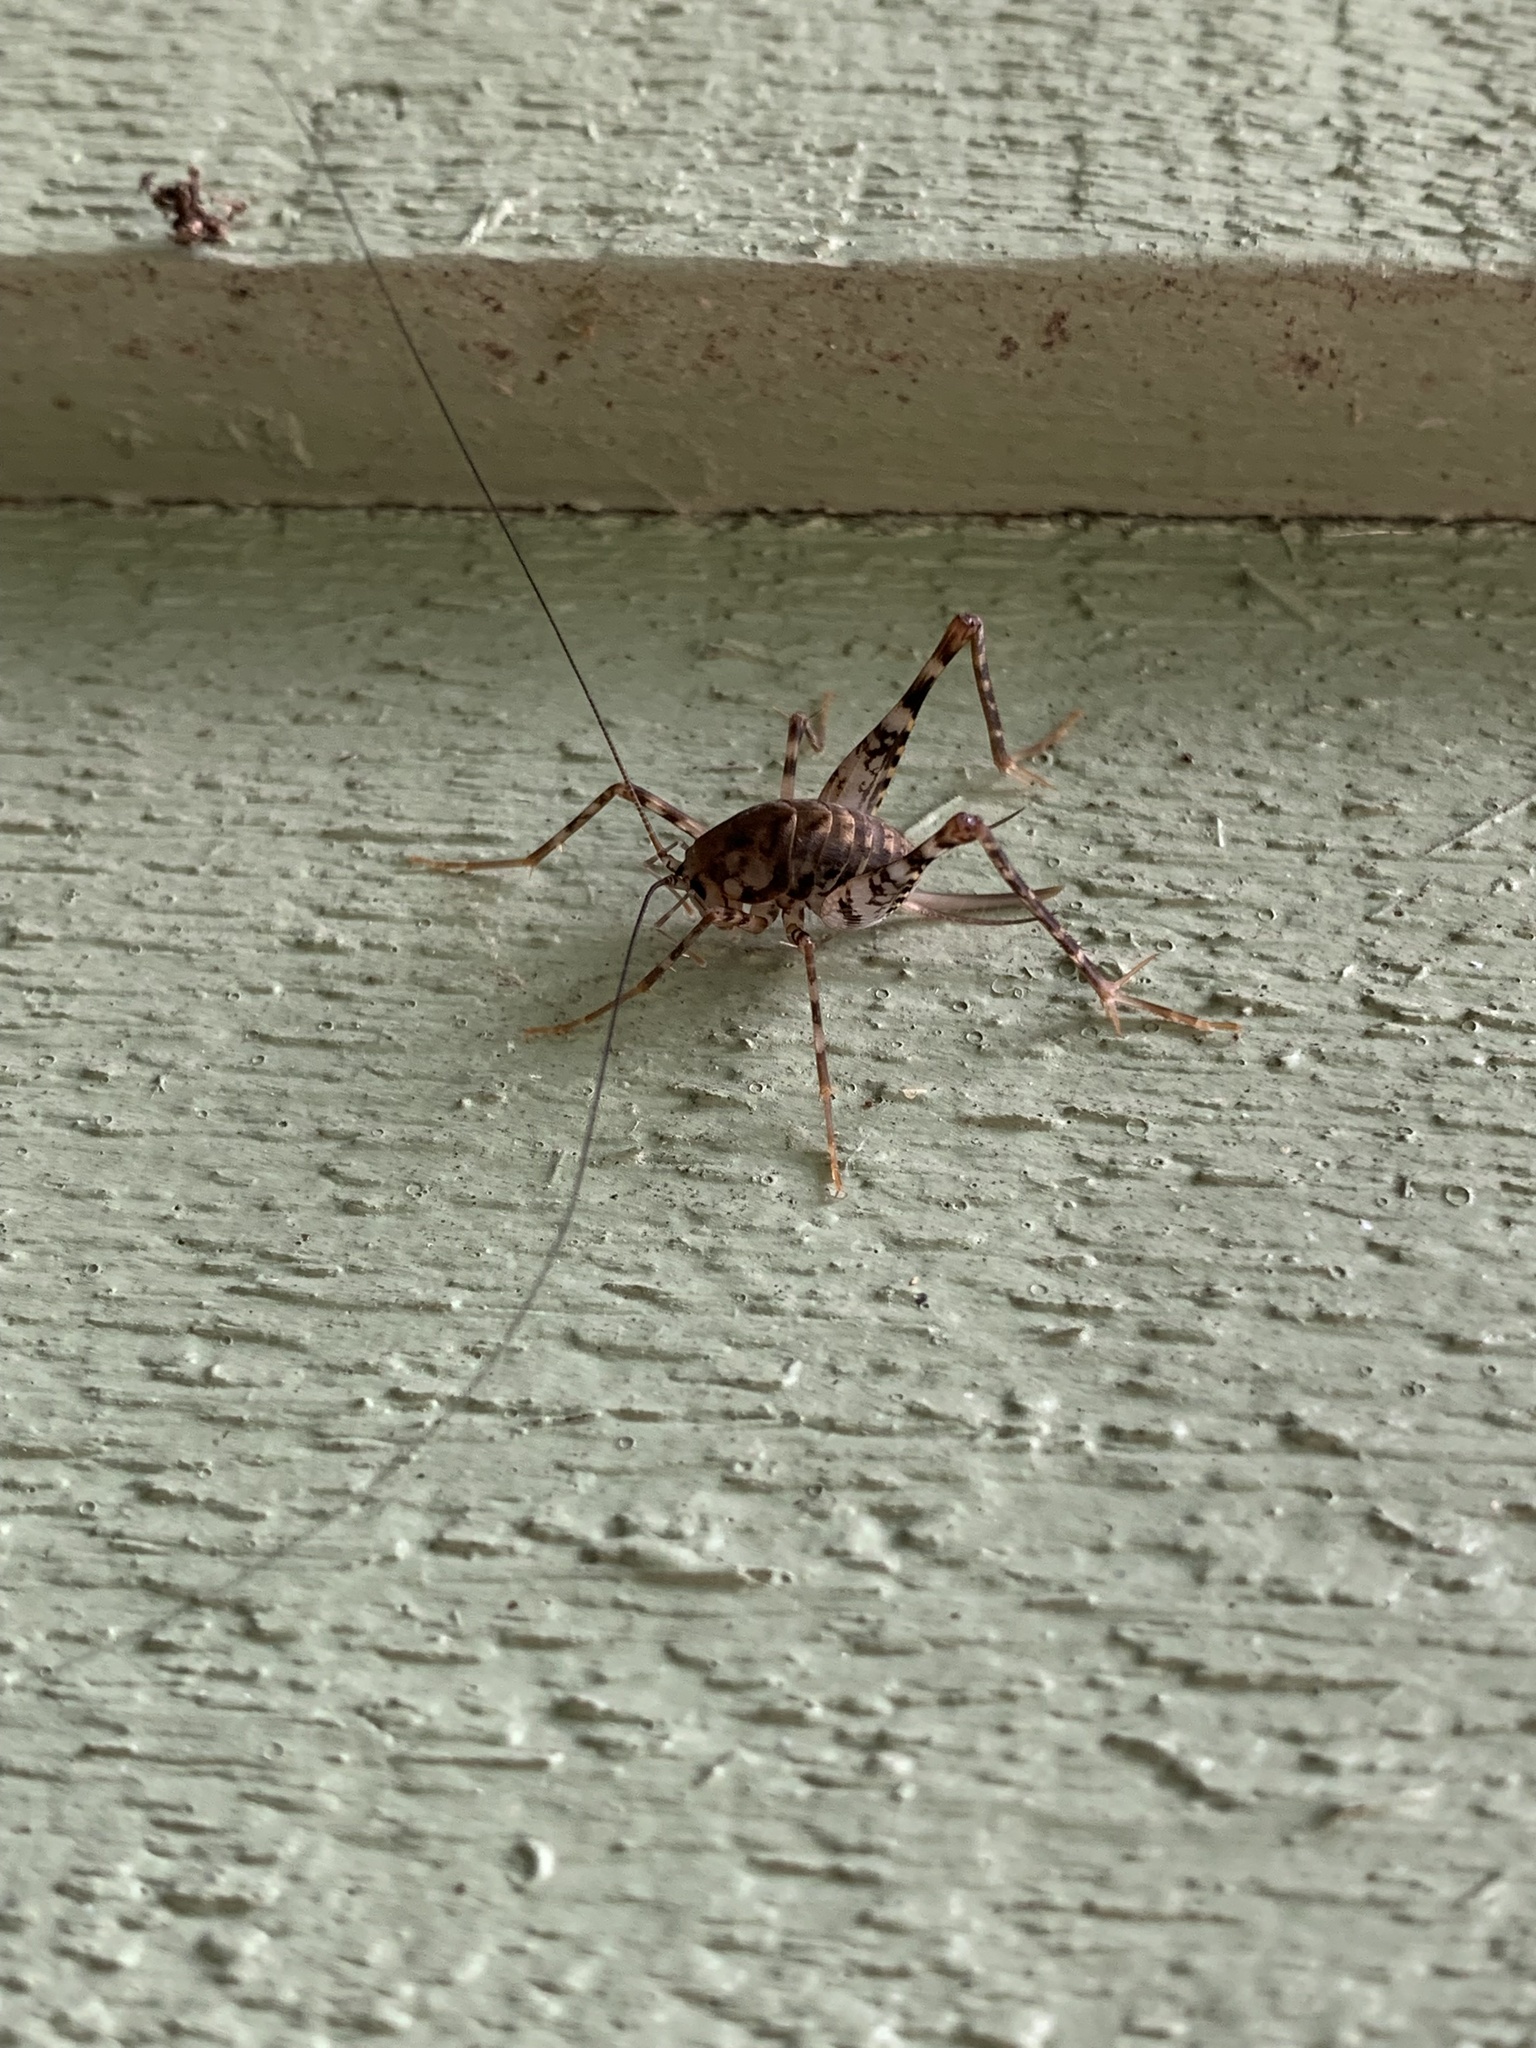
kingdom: Animalia
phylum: Arthropoda
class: Insecta
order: Orthoptera
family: Rhaphidophoridae
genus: Tachycines
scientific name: Tachycines asynamorus
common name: Greenhouse camel cricket
